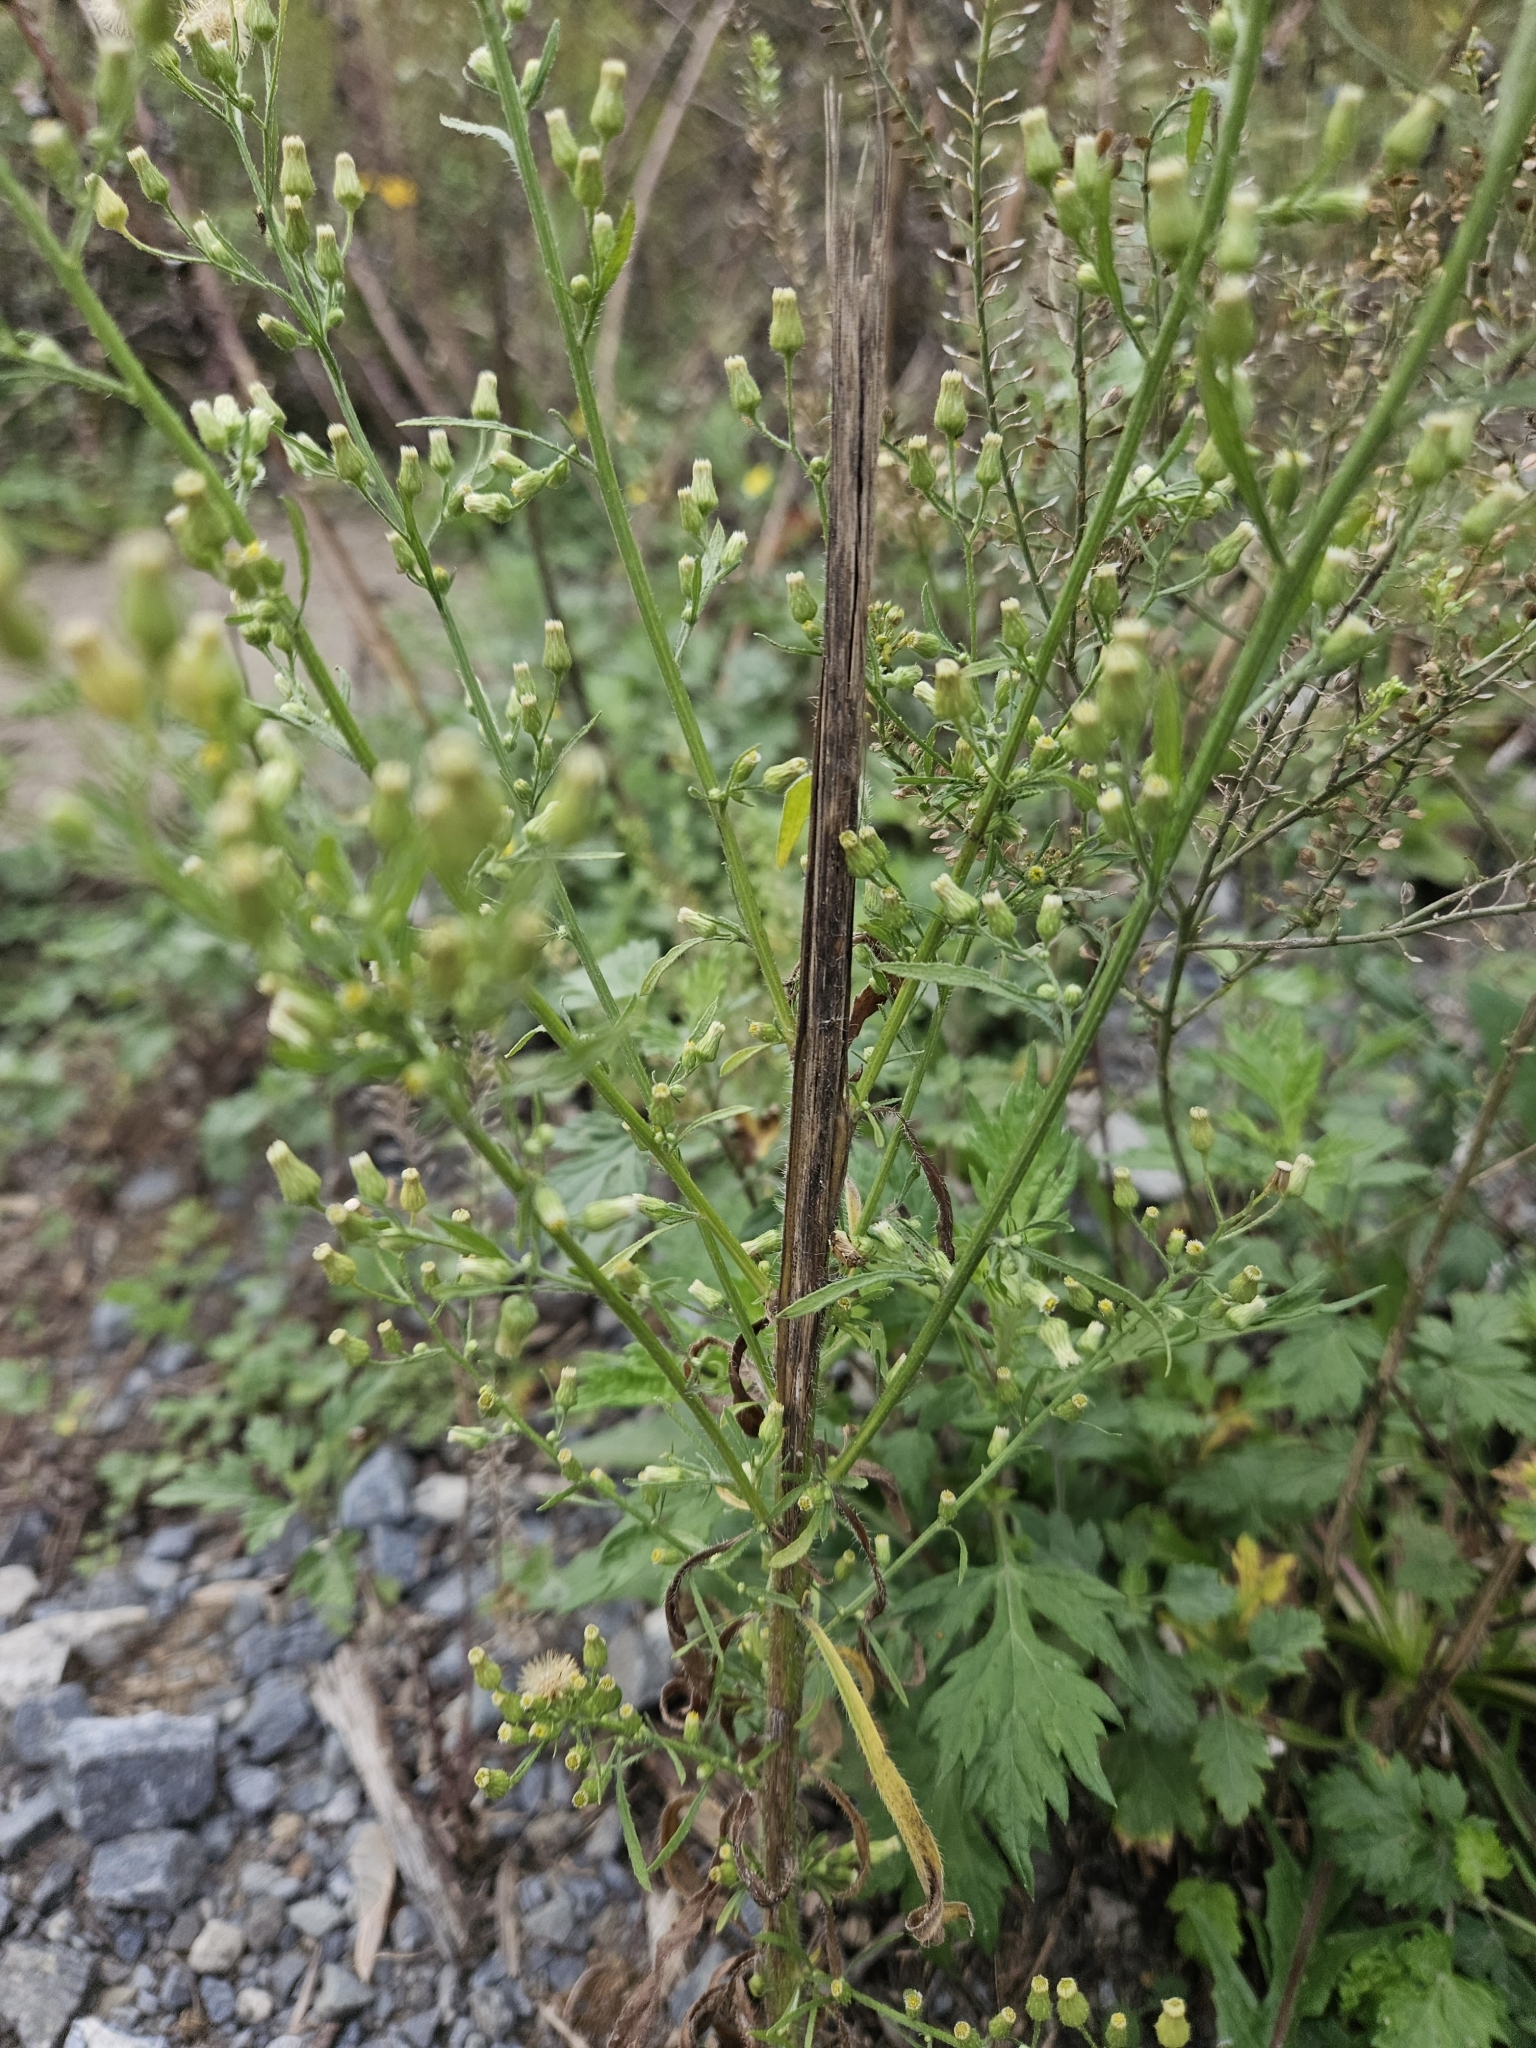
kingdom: Plantae
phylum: Tracheophyta
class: Magnoliopsida
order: Asterales
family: Asteraceae
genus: Erigeron
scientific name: Erigeron canadensis
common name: Canadian fleabane
